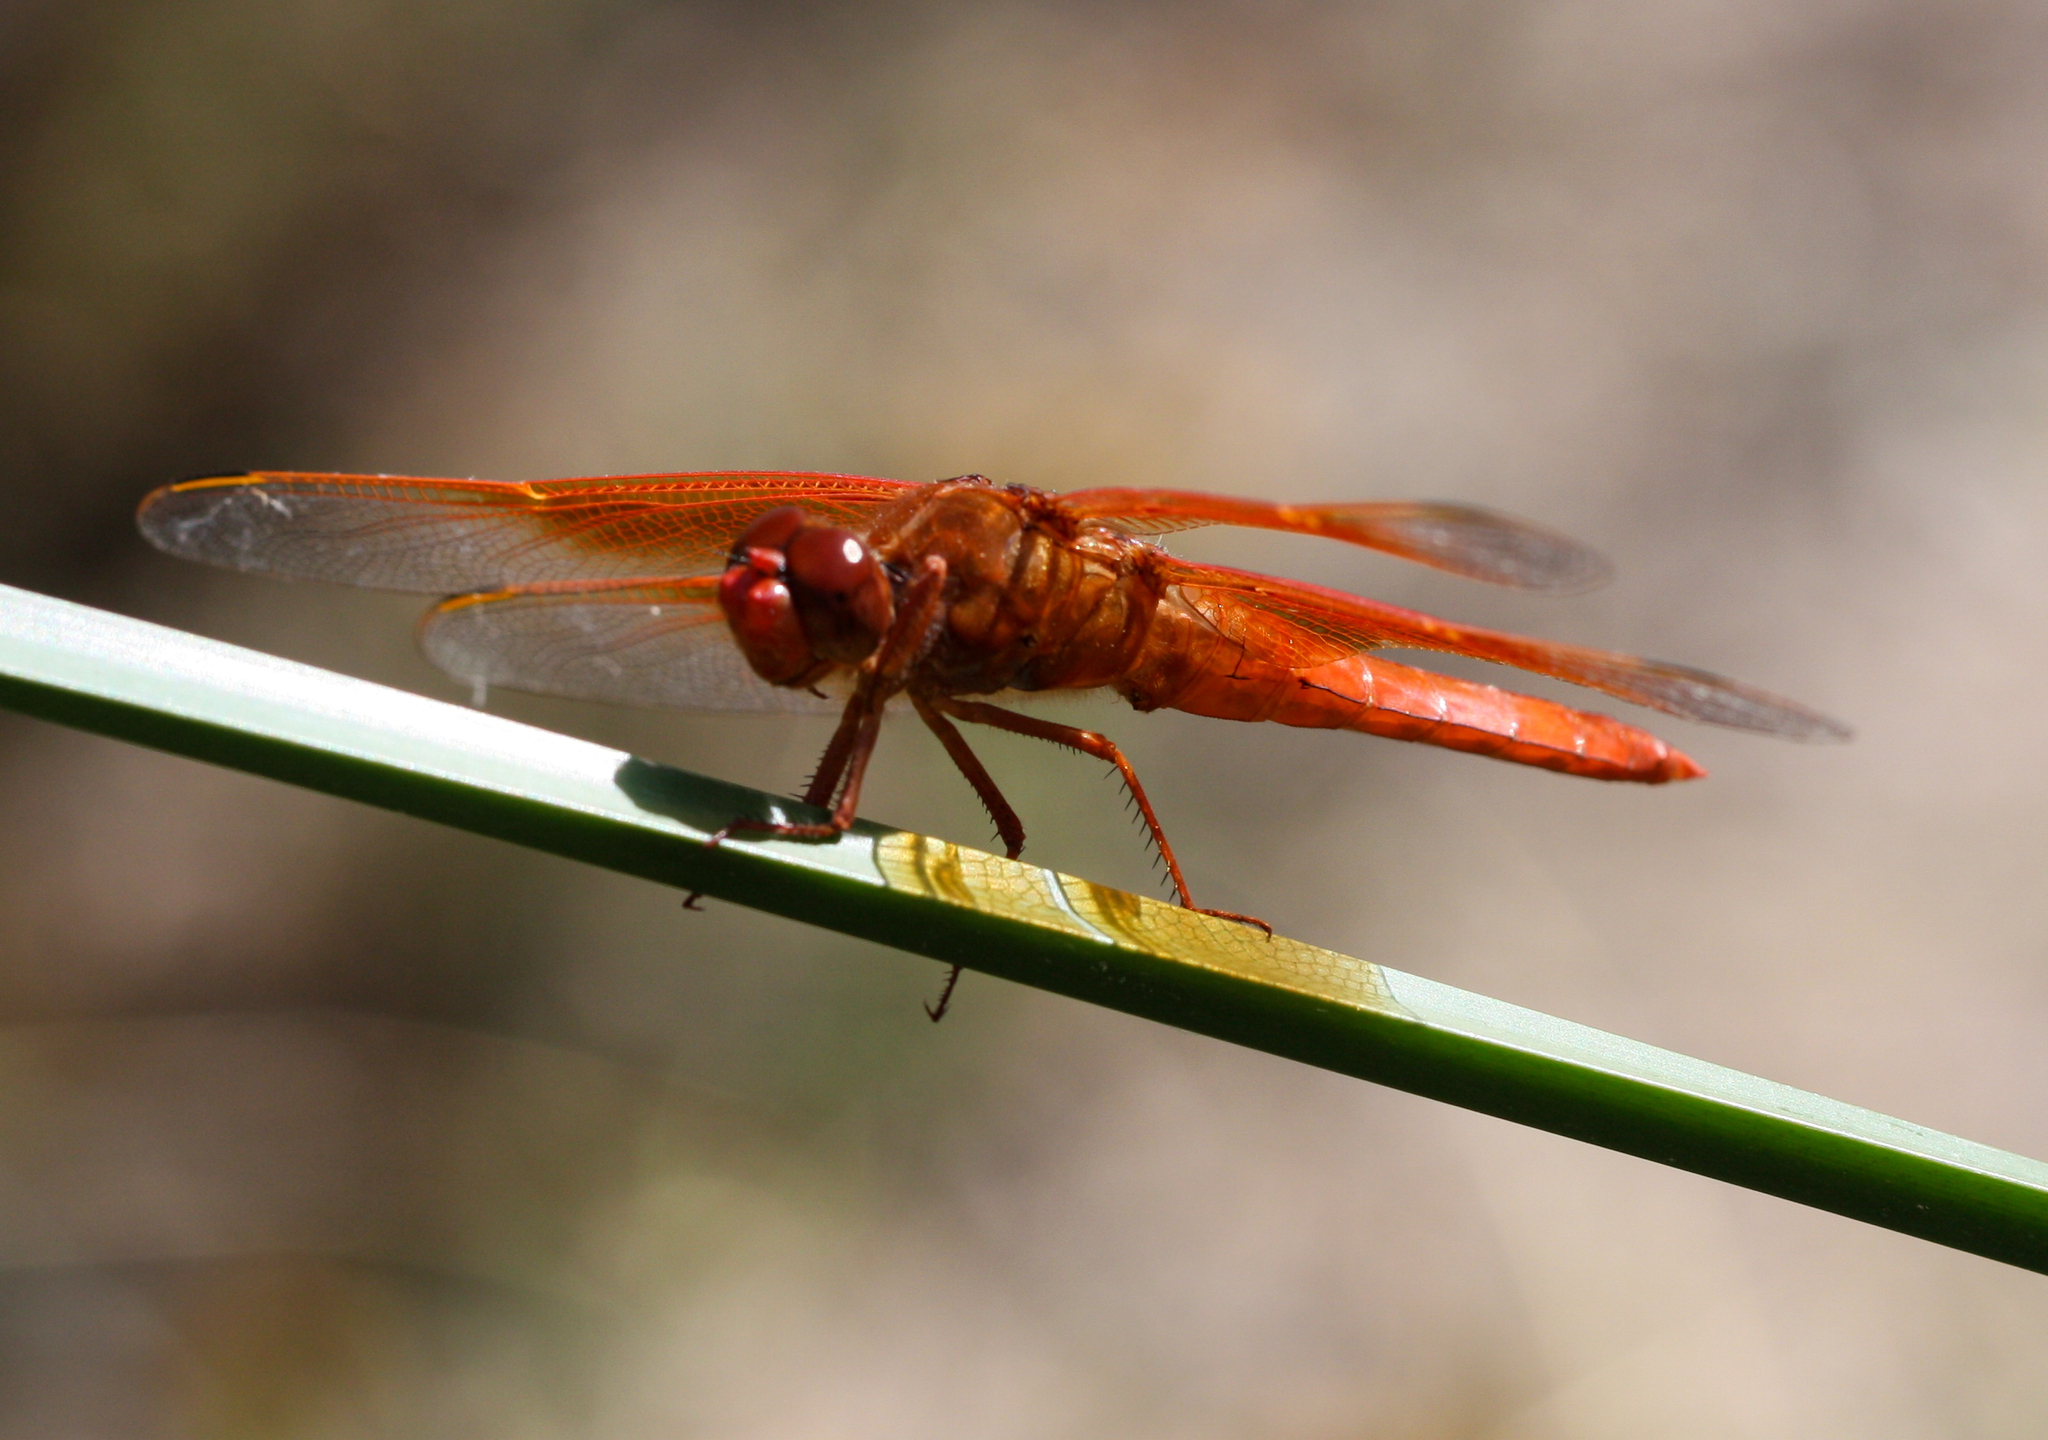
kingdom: Animalia
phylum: Arthropoda
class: Insecta
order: Odonata
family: Libellulidae
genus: Libellula
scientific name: Libellula saturata
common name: Flame skimmer
